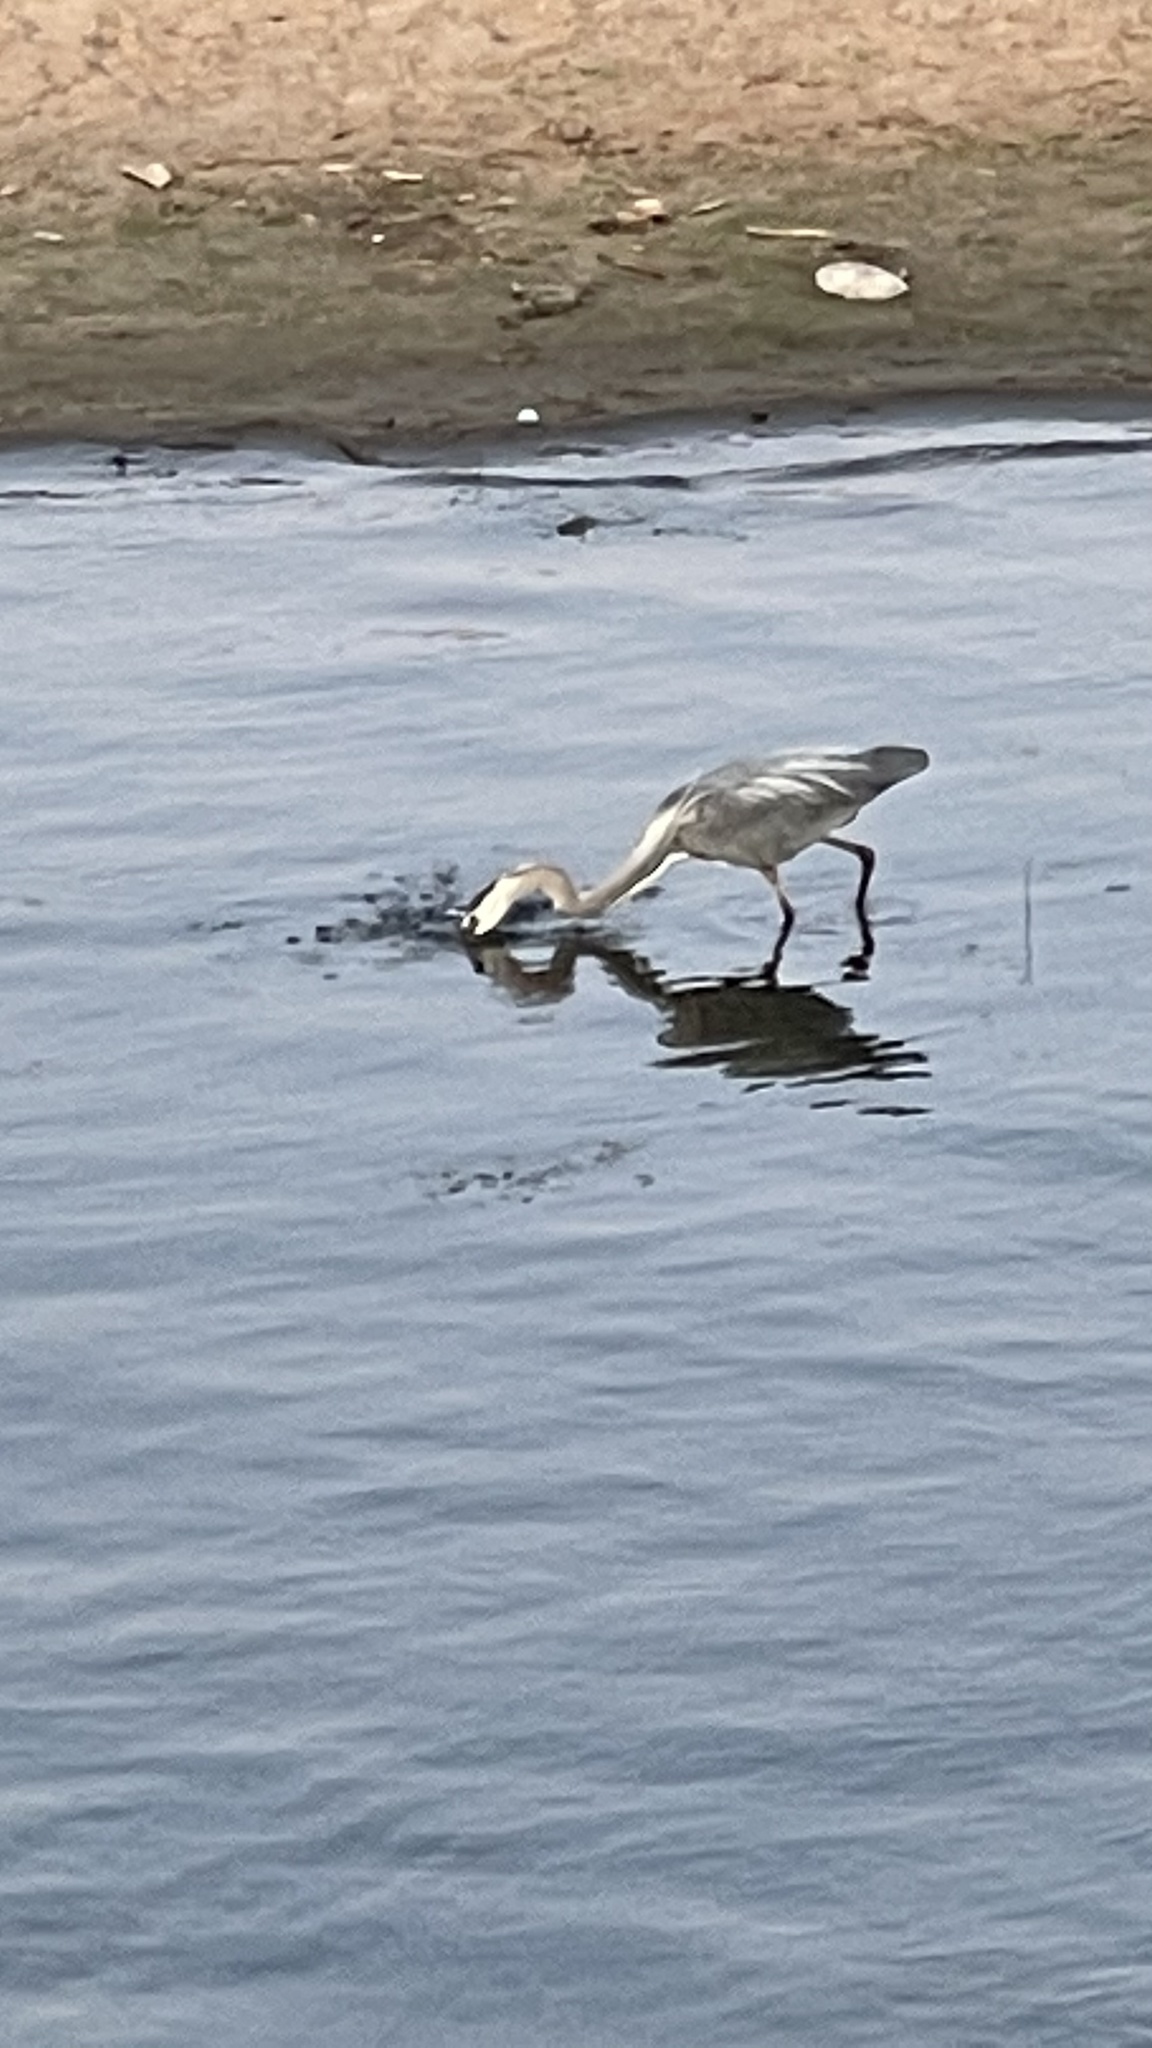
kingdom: Animalia
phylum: Chordata
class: Aves
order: Pelecaniformes
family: Ardeidae
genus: Ardea
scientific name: Ardea herodias
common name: Great blue heron
